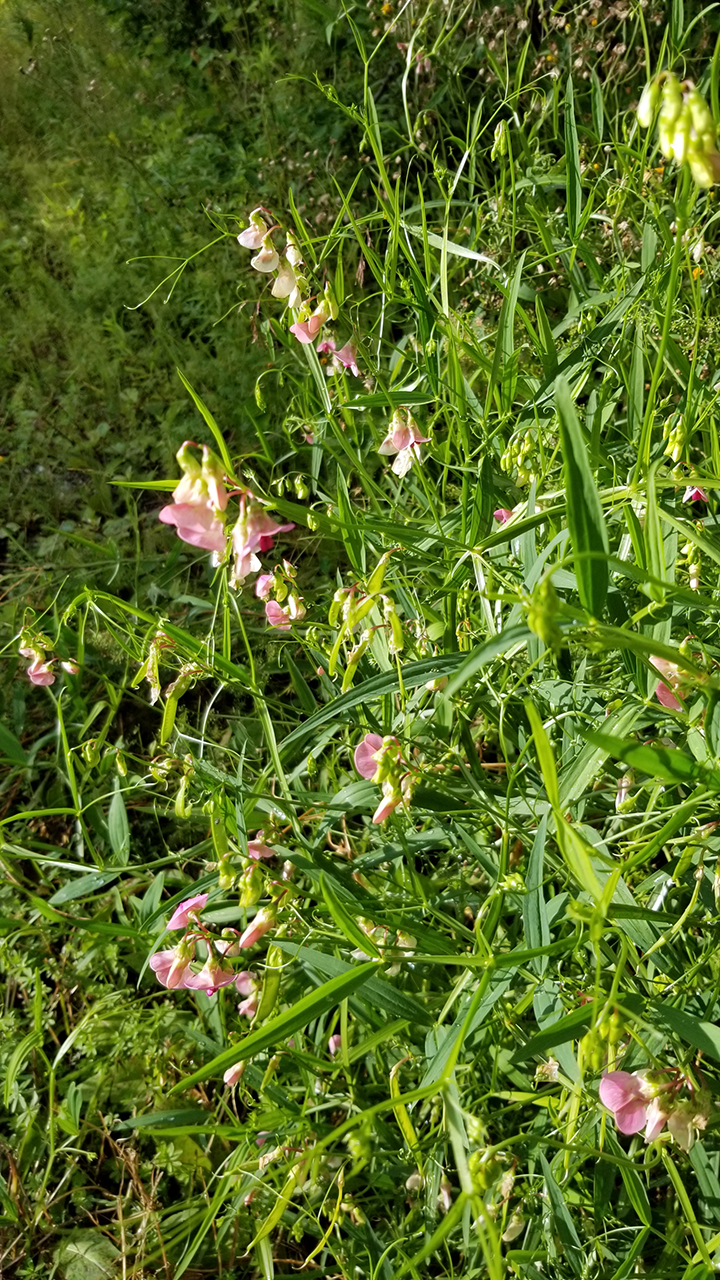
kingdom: Plantae
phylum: Tracheophyta
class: Magnoliopsida
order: Fabales
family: Fabaceae
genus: Lathyrus
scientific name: Lathyrus sylvestris
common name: Flat pea
